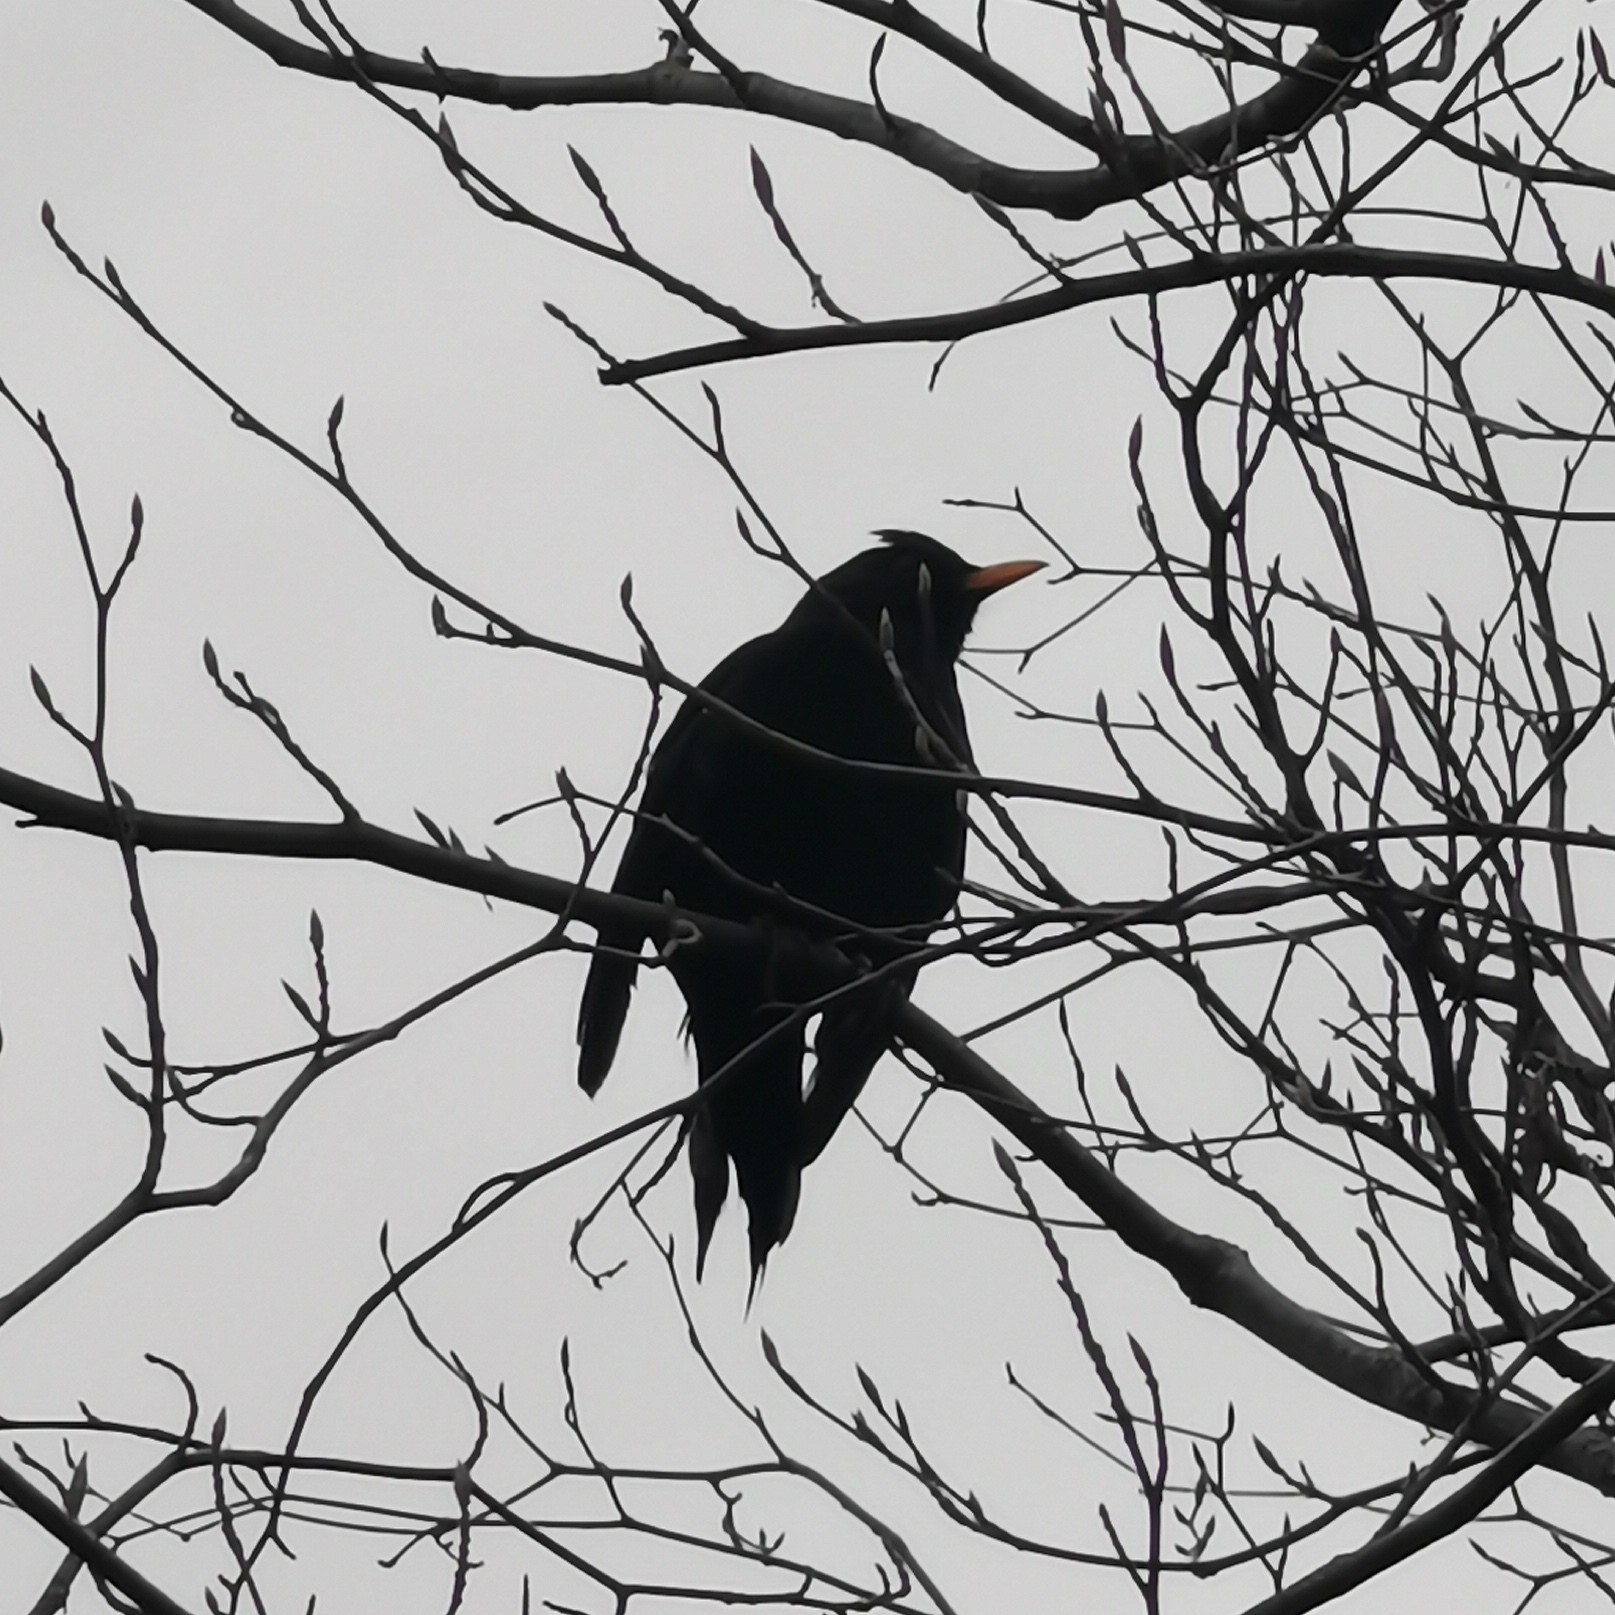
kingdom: Animalia
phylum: Chordata
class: Aves
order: Passeriformes
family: Turdidae
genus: Turdus
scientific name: Turdus merula
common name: Common blackbird
